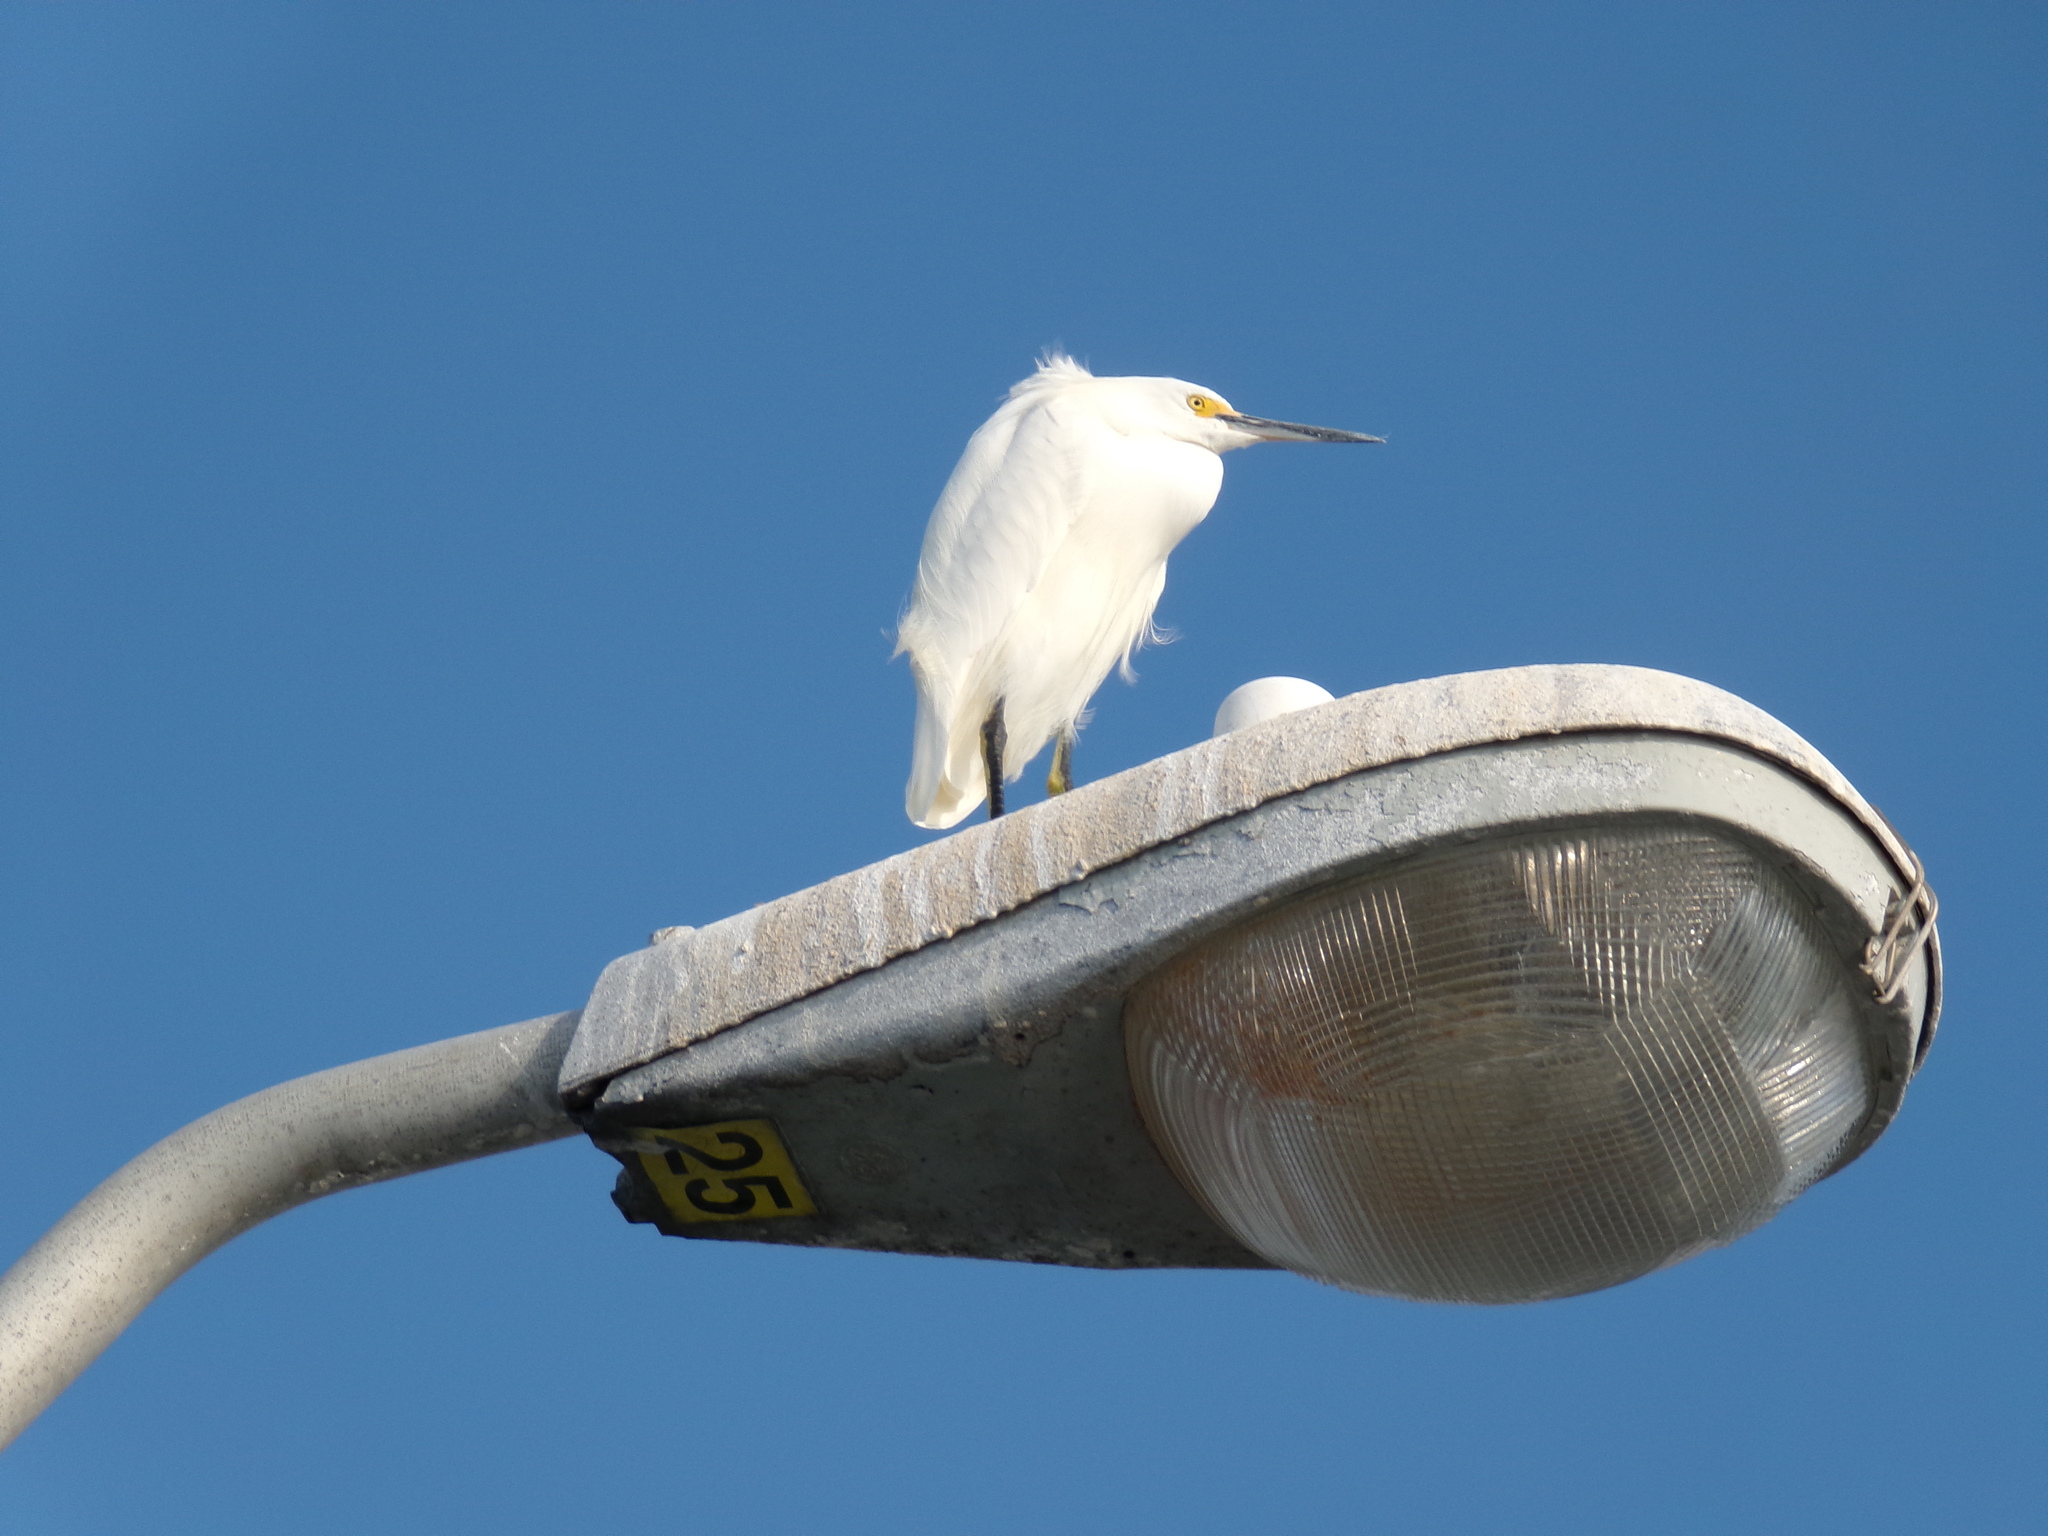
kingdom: Animalia
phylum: Chordata
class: Aves
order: Pelecaniformes
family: Ardeidae
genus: Egretta
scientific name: Egretta thula
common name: Snowy egret
